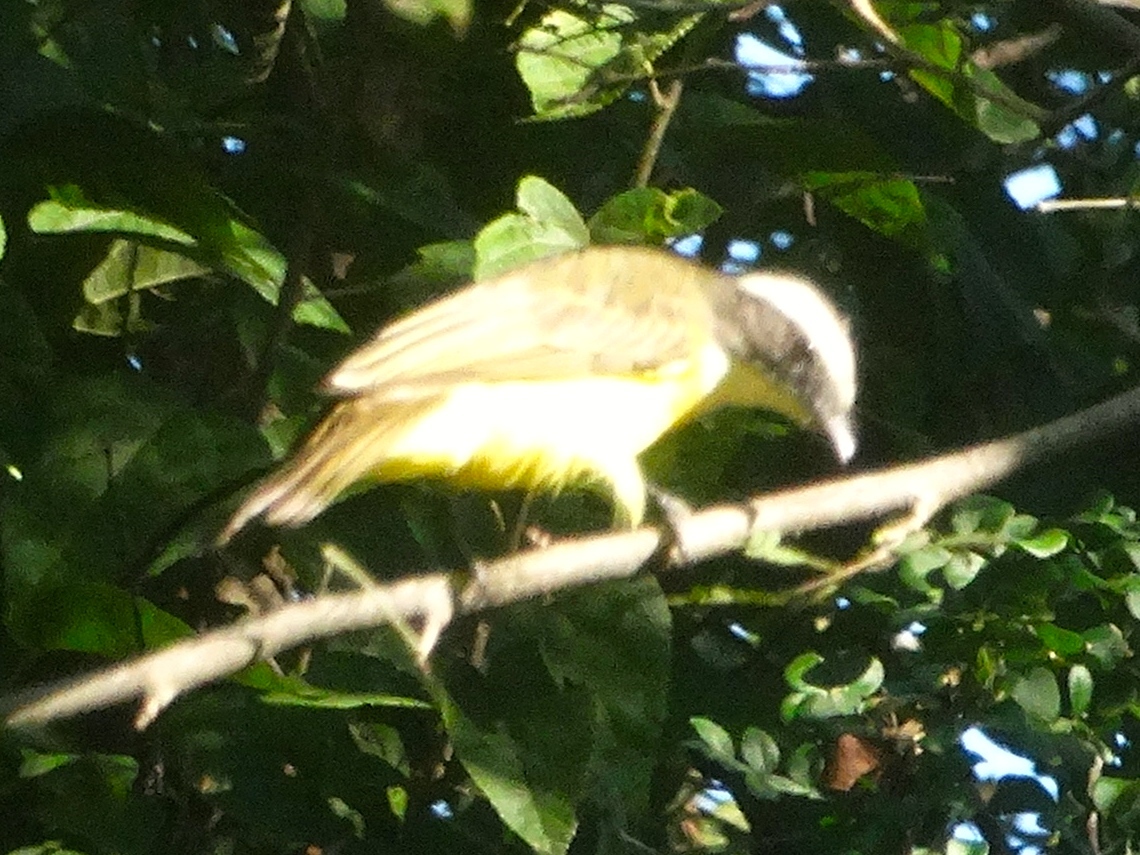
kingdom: Animalia
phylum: Chordata
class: Aves
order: Passeriformes
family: Tyrannidae
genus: Myiozetetes
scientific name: Myiozetetes similis
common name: Social flycatcher
